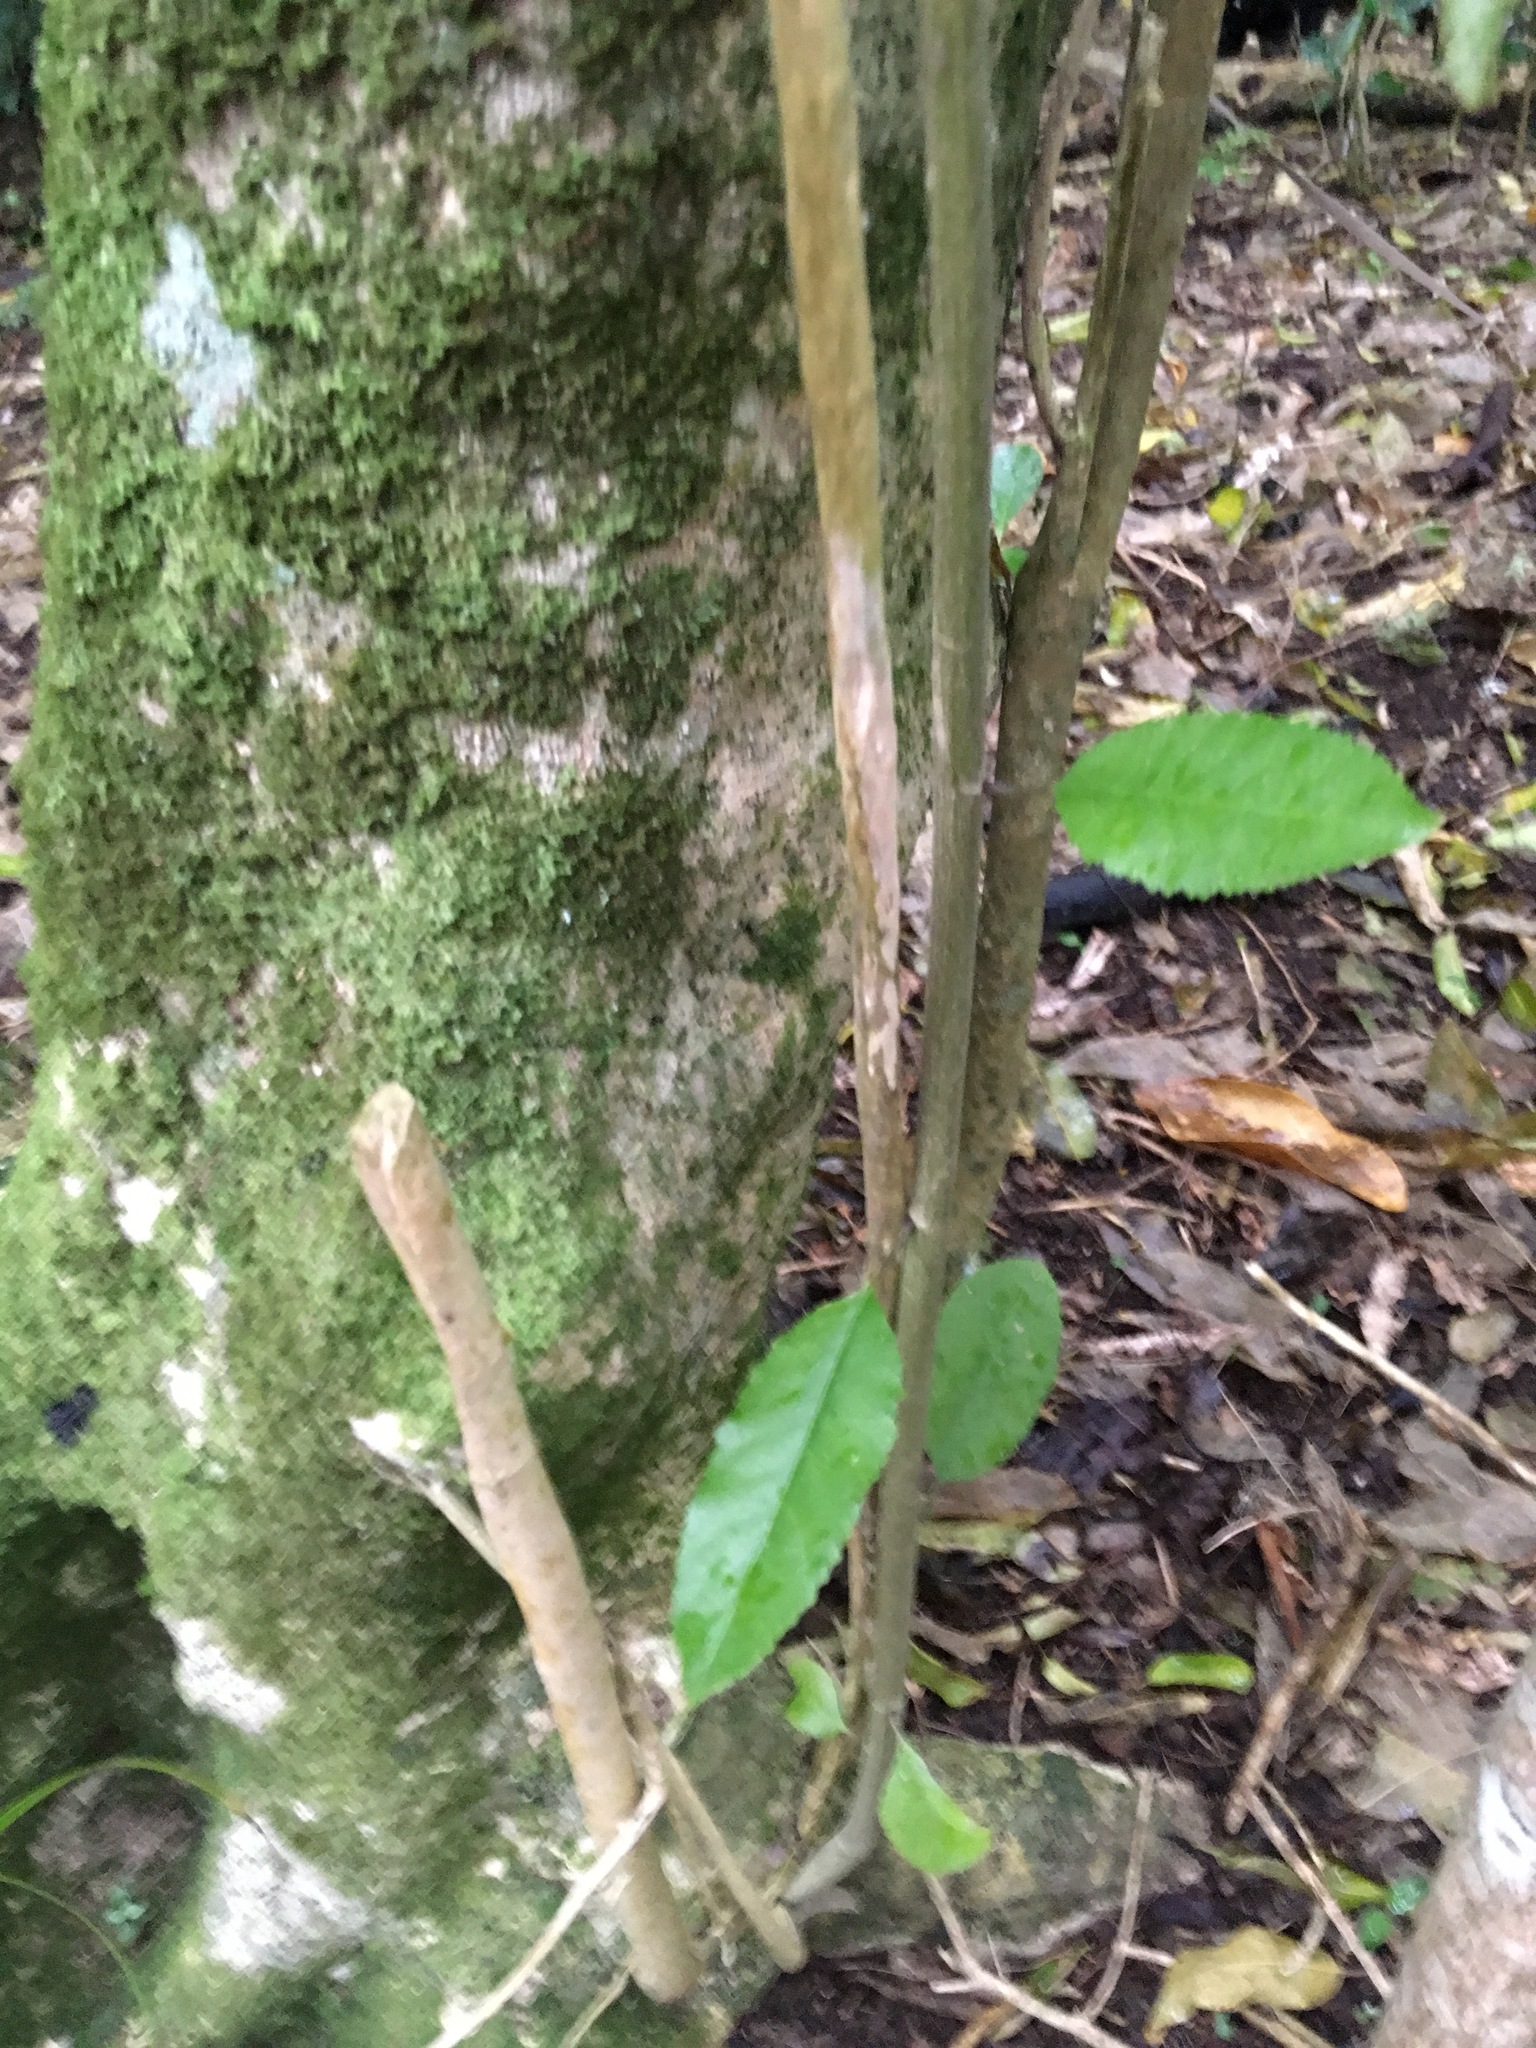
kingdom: Plantae
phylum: Tracheophyta
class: Magnoliopsida
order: Malpighiales
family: Violaceae
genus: Melicytus
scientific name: Melicytus ramiflorus
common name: Mahoe
